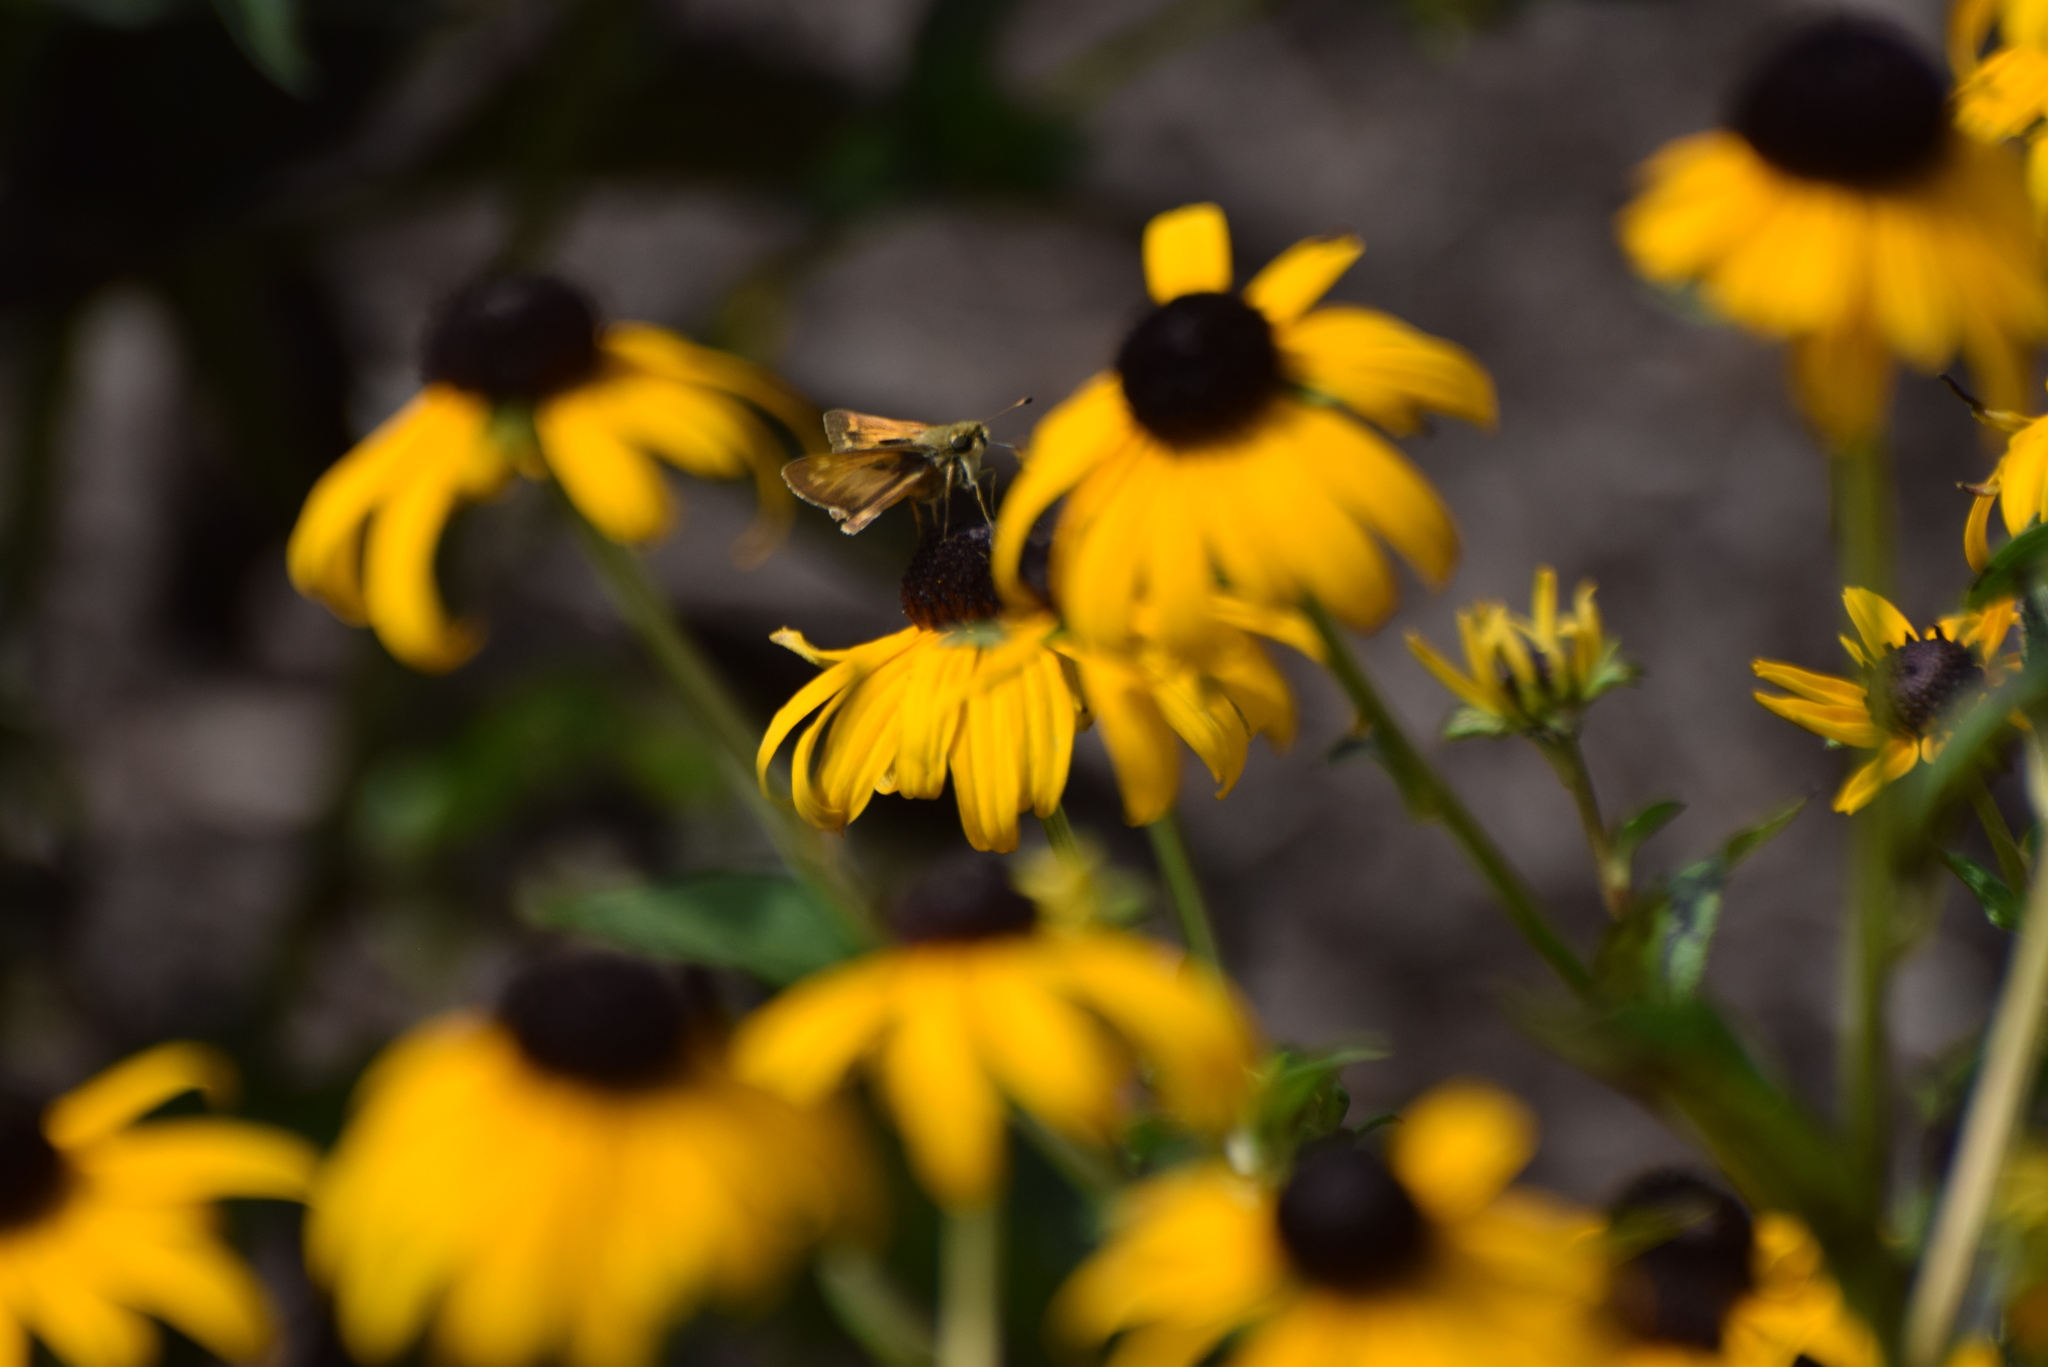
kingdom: Animalia
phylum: Arthropoda
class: Insecta
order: Lepidoptera
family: Hesperiidae
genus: Atalopedes
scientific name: Atalopedes
